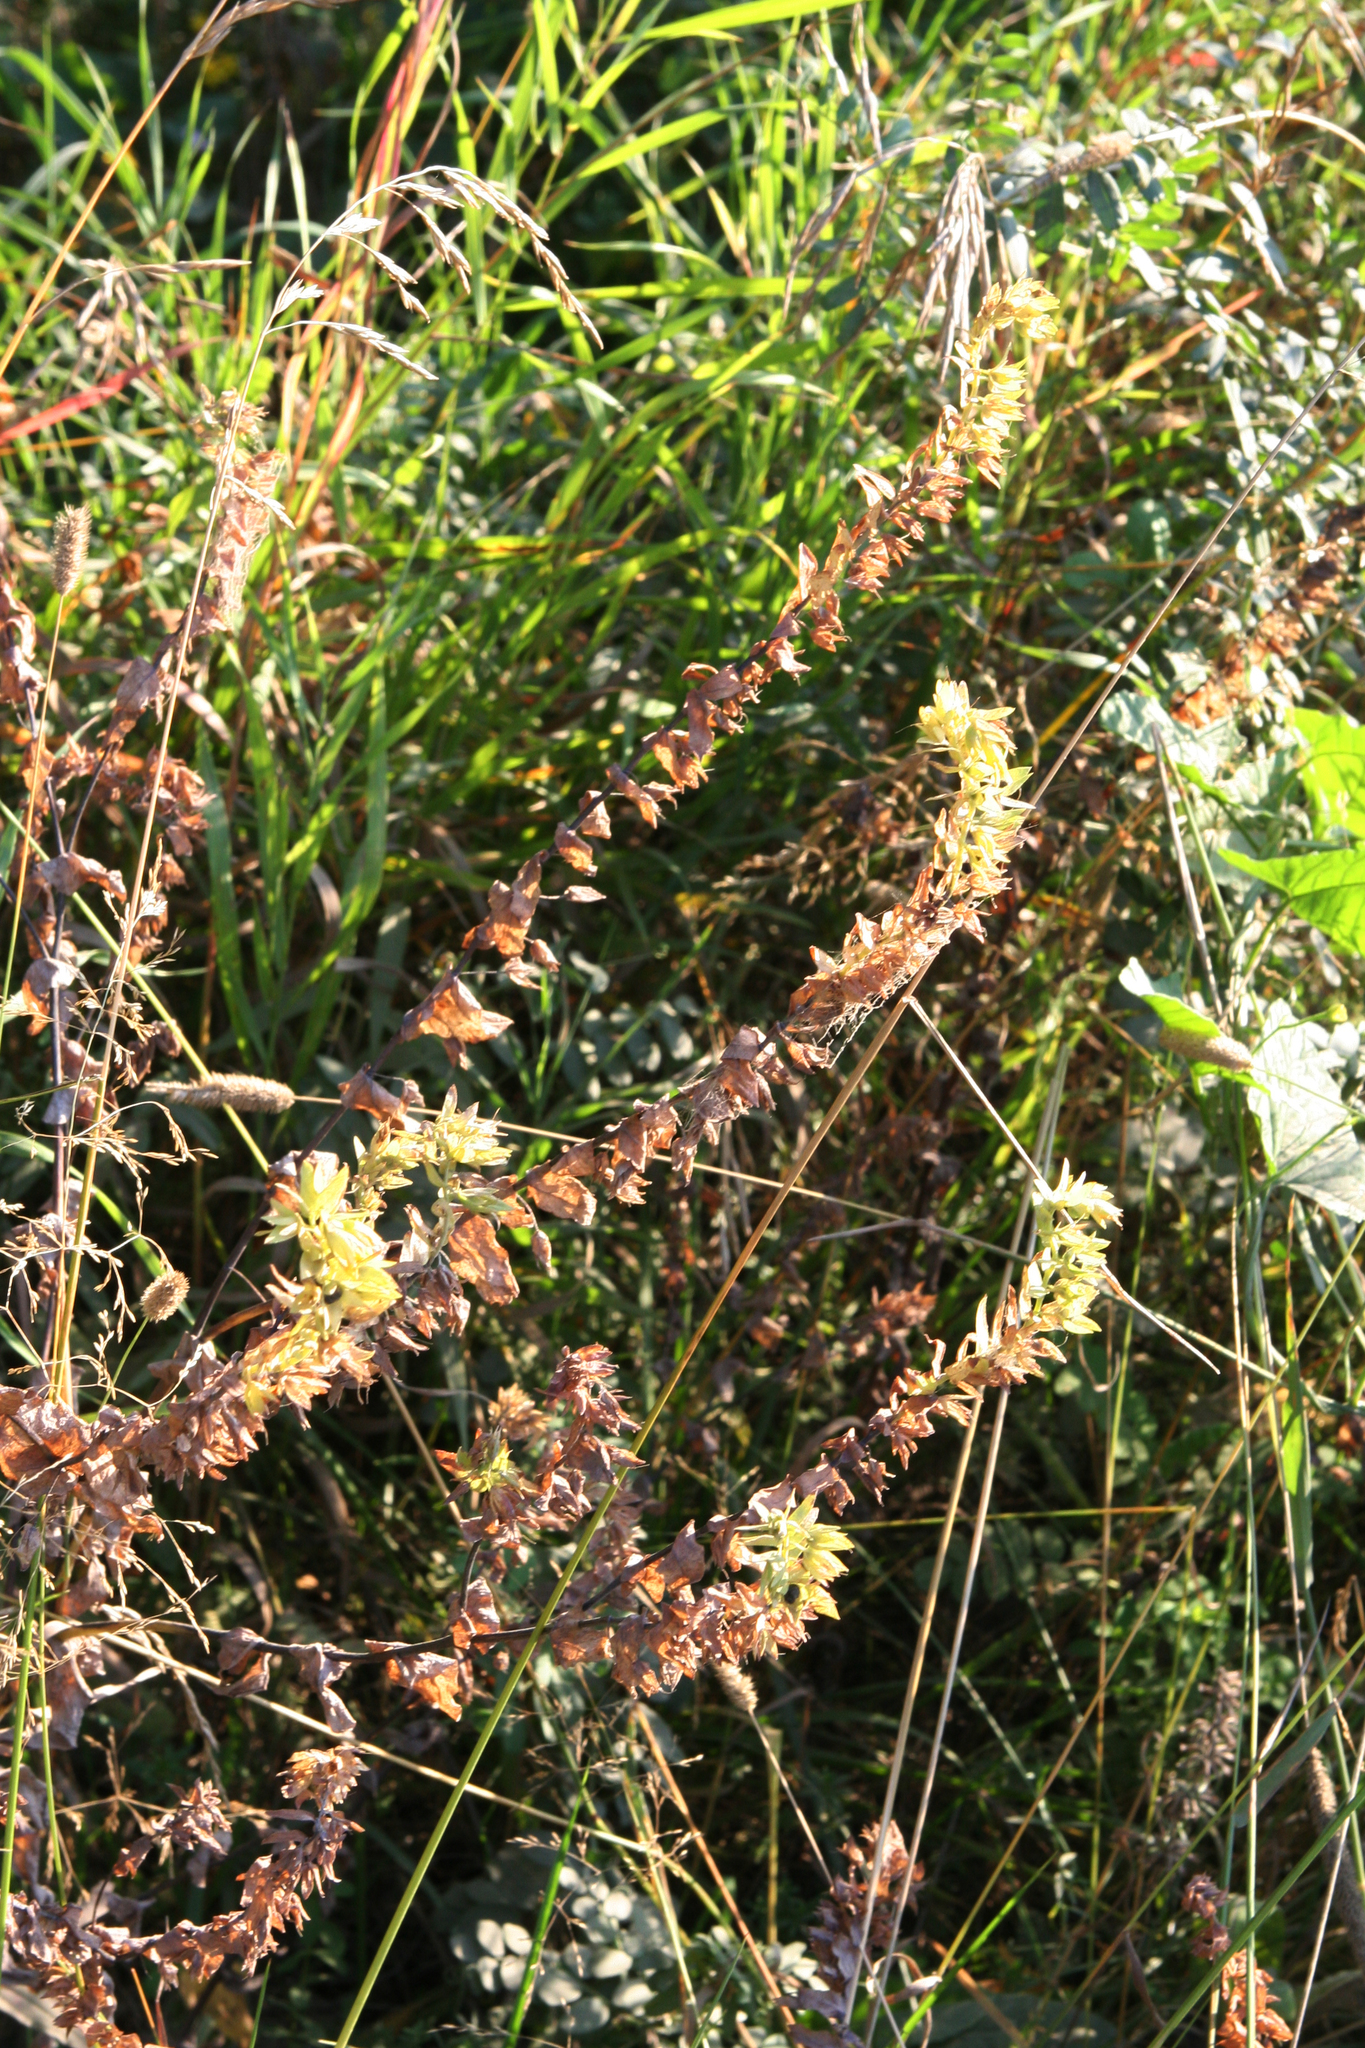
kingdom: Plantae
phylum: Tracheophyta
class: Magnoliopsida
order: Boraginales
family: Boraginaceae
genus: Cerinthe
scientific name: Cerinthe minor
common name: Lesser honeywort
